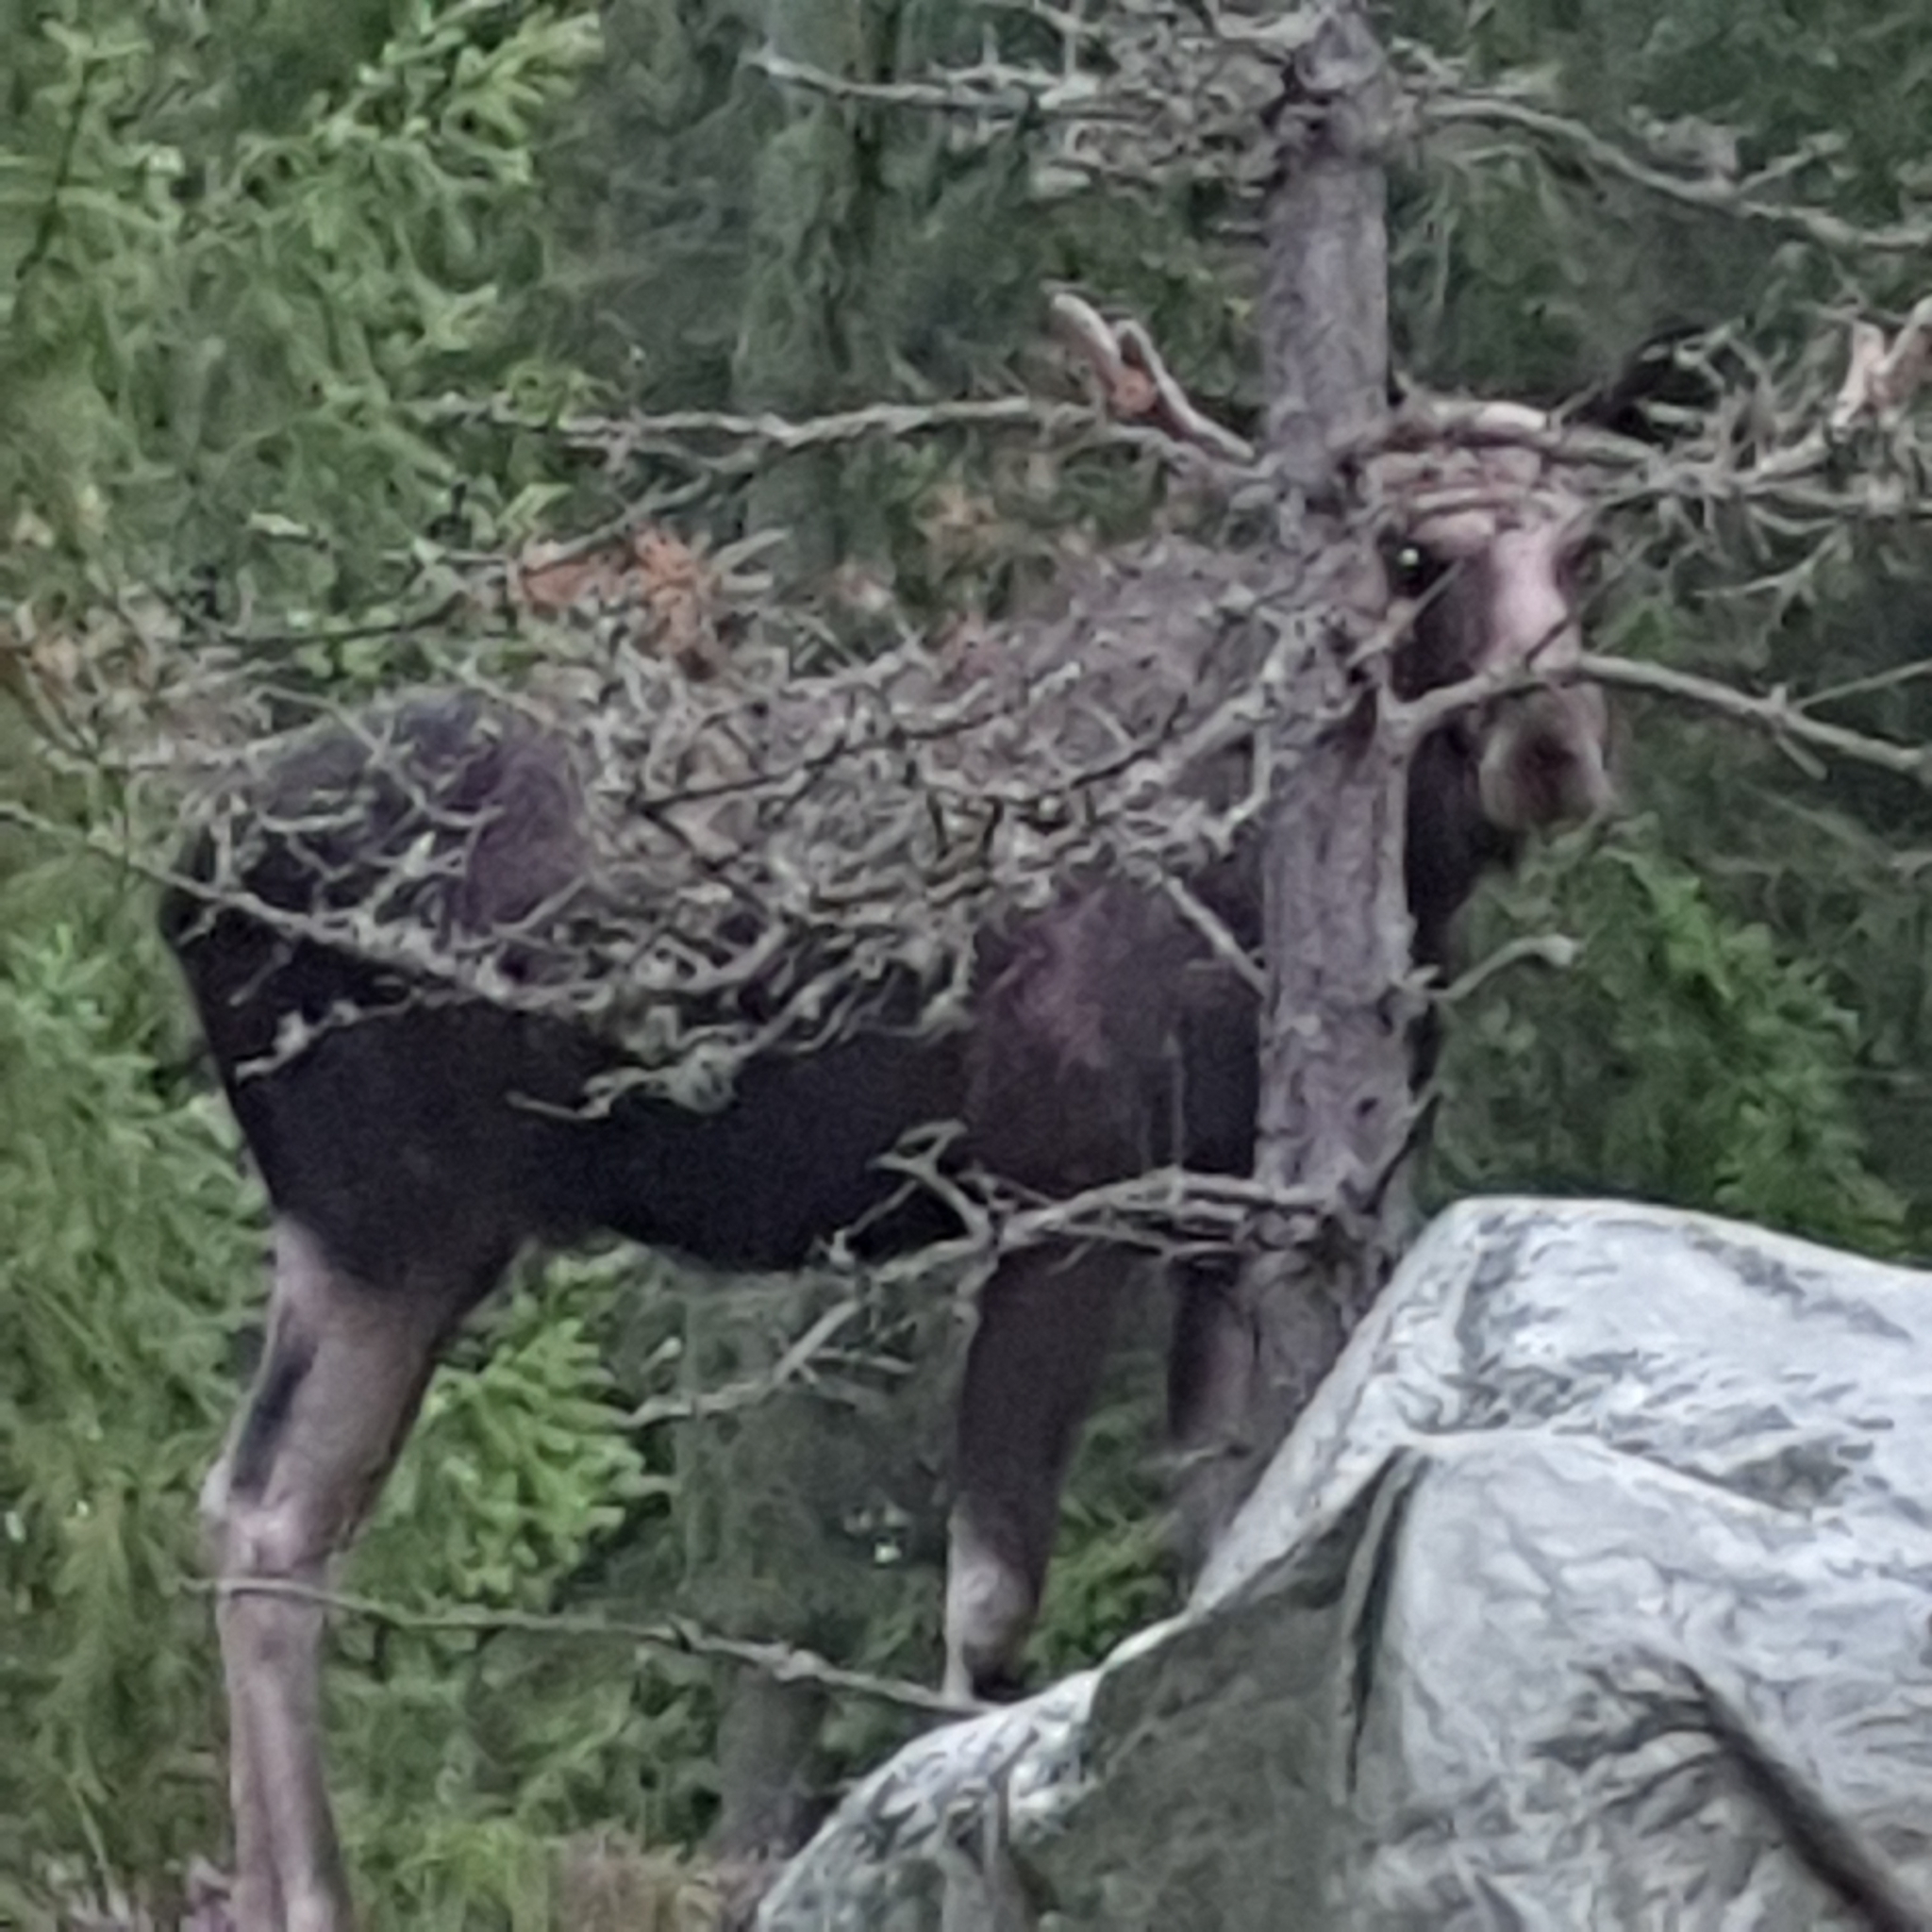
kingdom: Animalia
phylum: Chordata
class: Mammalia
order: Artiodactyla
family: Cervidae
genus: Alces
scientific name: Alces alces
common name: Moose
